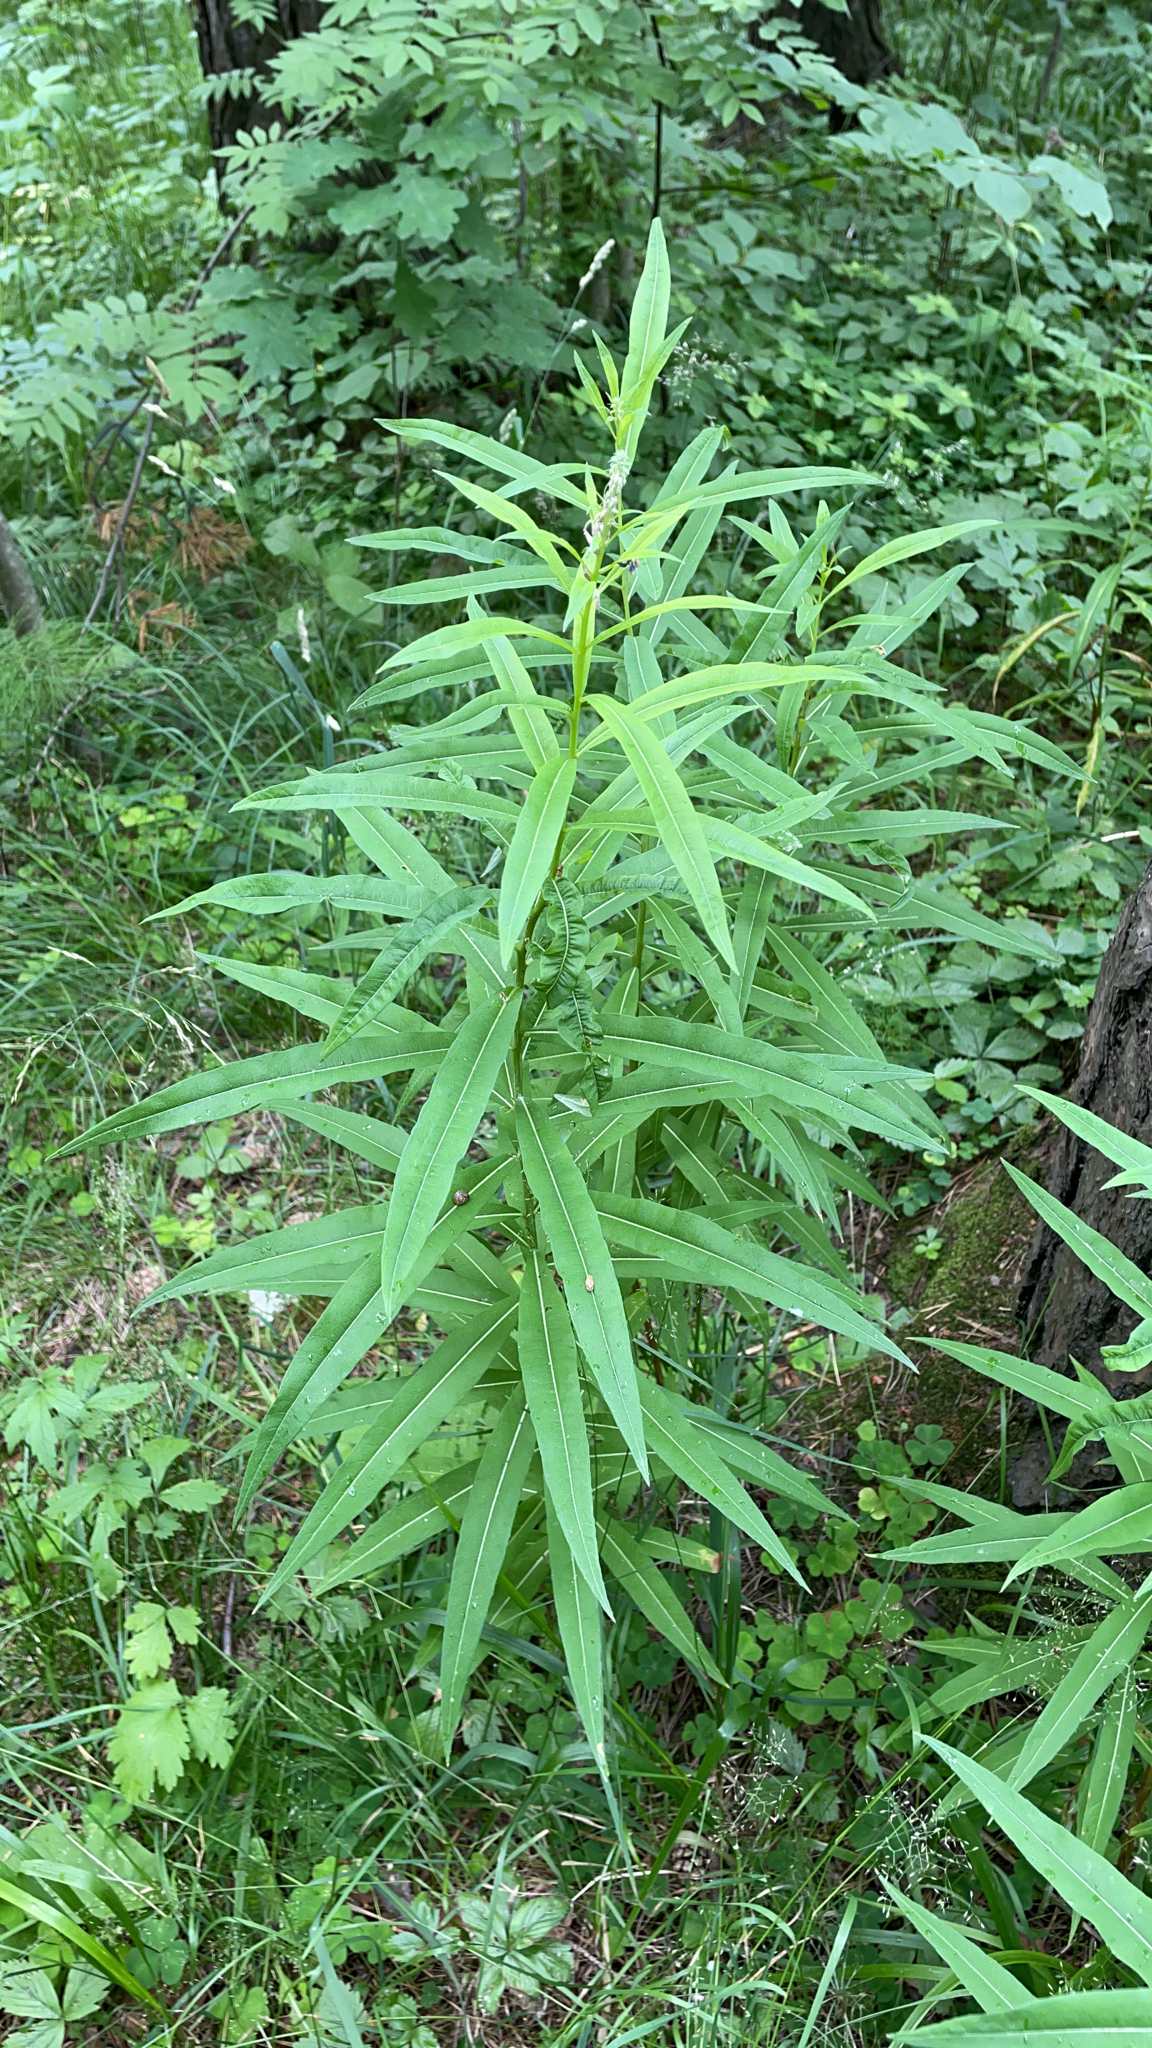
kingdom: Plantae
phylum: Tracheophyta
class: Magnoliopsida
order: Myrtales
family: Onagraceae
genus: Chamaenerion
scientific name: Chamaenerion angustifolium
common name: Fireweed
